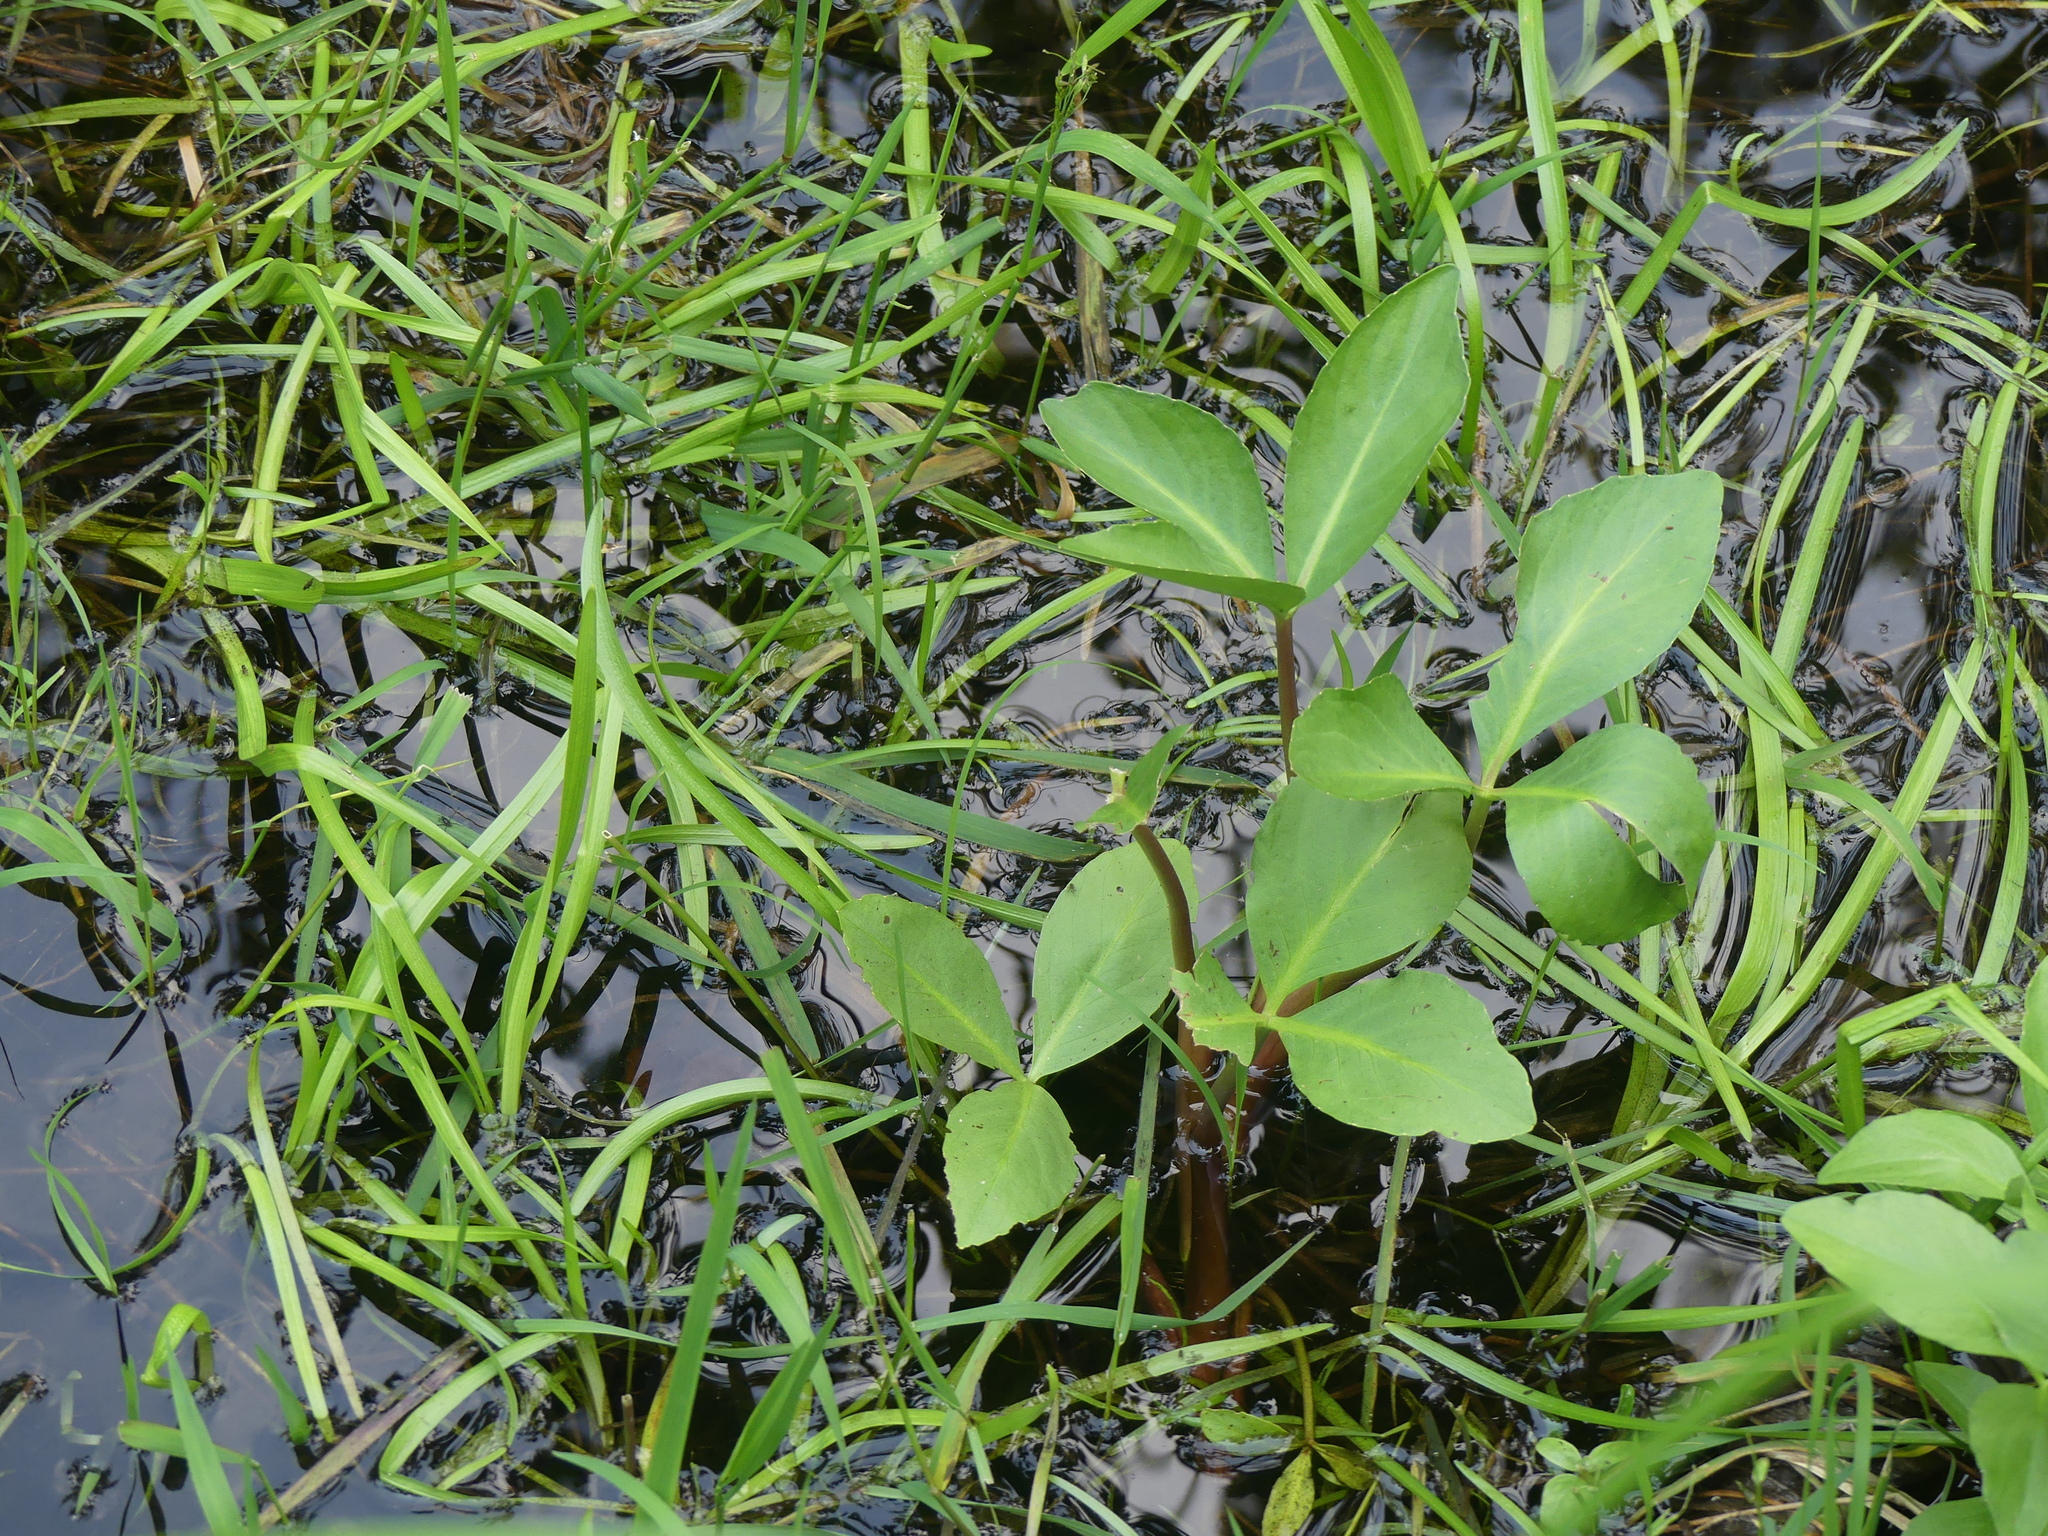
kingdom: Plantae
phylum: Tracheophyta
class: Magnoliopsida
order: Asterales
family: Menyanthaceae
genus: Menyanthes
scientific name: Menyanthes trifoliata
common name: Bogbean
